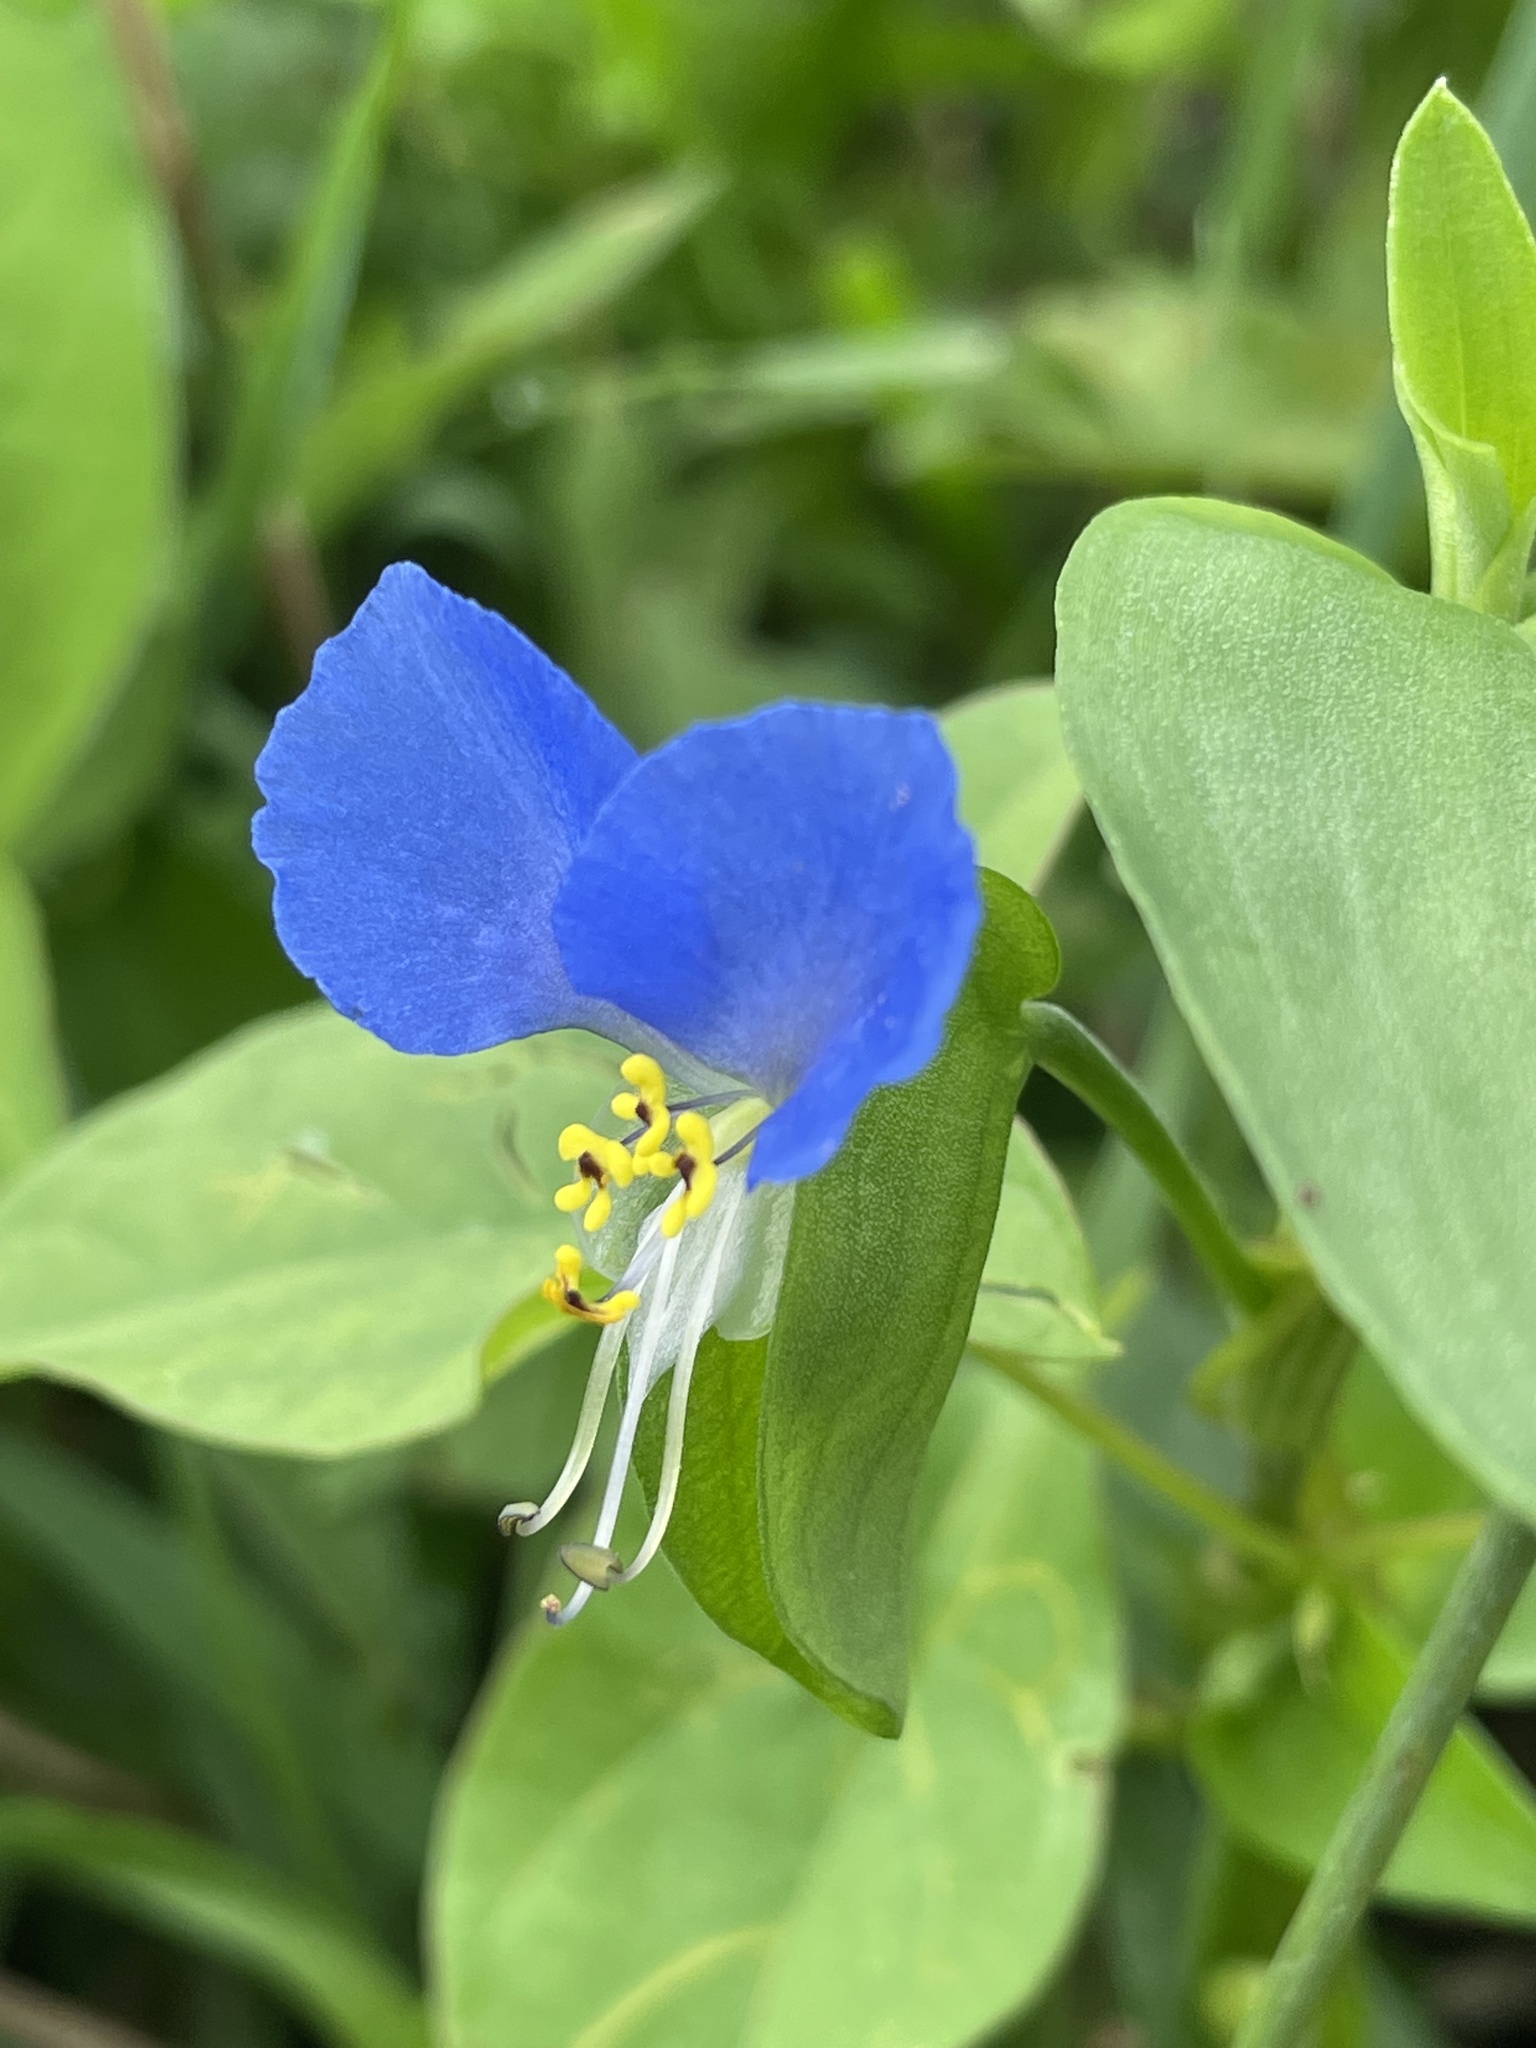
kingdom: Plantae
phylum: Tracheophyta
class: Liliopsida
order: Commelinales
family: Commelinaceae
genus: Commelina
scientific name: Commelina communis
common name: Asiatic dayflower
